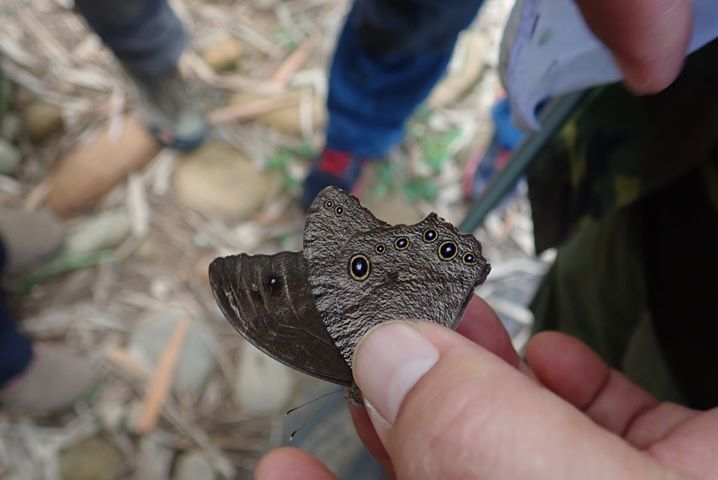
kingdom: Animalia
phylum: Arthropoda
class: Insecta
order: Lepidoptera
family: Nymphalidae
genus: Melanitis
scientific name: Melanitis leda
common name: Twilight brown
